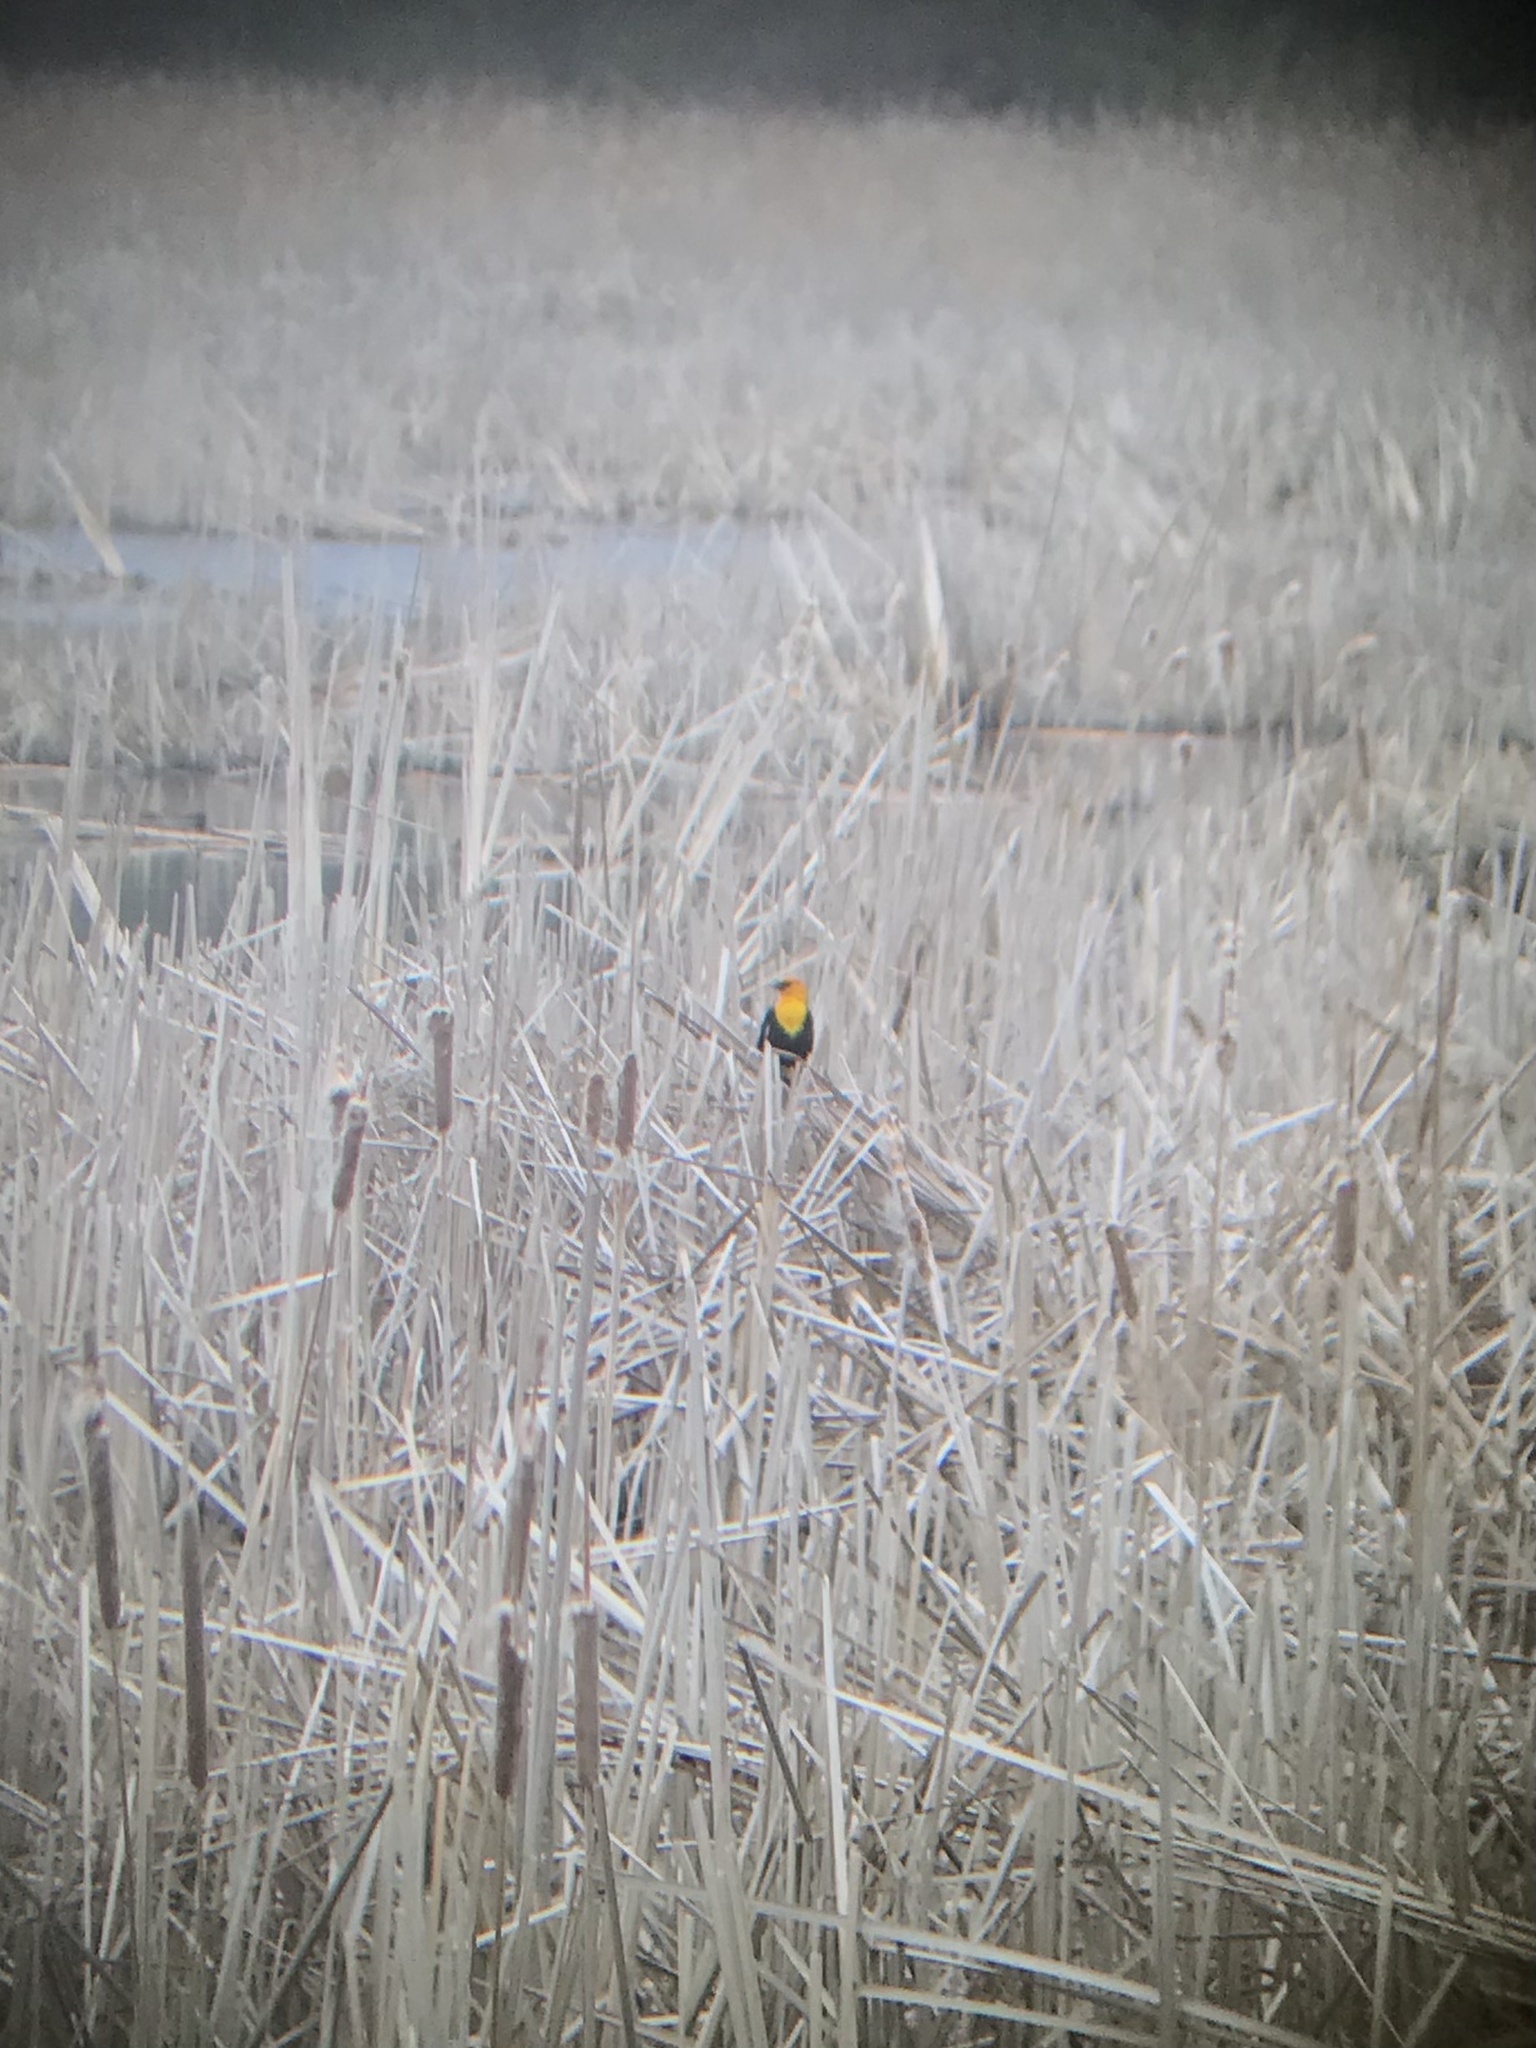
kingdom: Animalia
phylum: Chordata
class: Aves
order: Passeriformes
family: Icteridae
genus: Xanthocephalus
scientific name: Xanthocephalus xanthocephalus
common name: Yellow-headed blackbird
